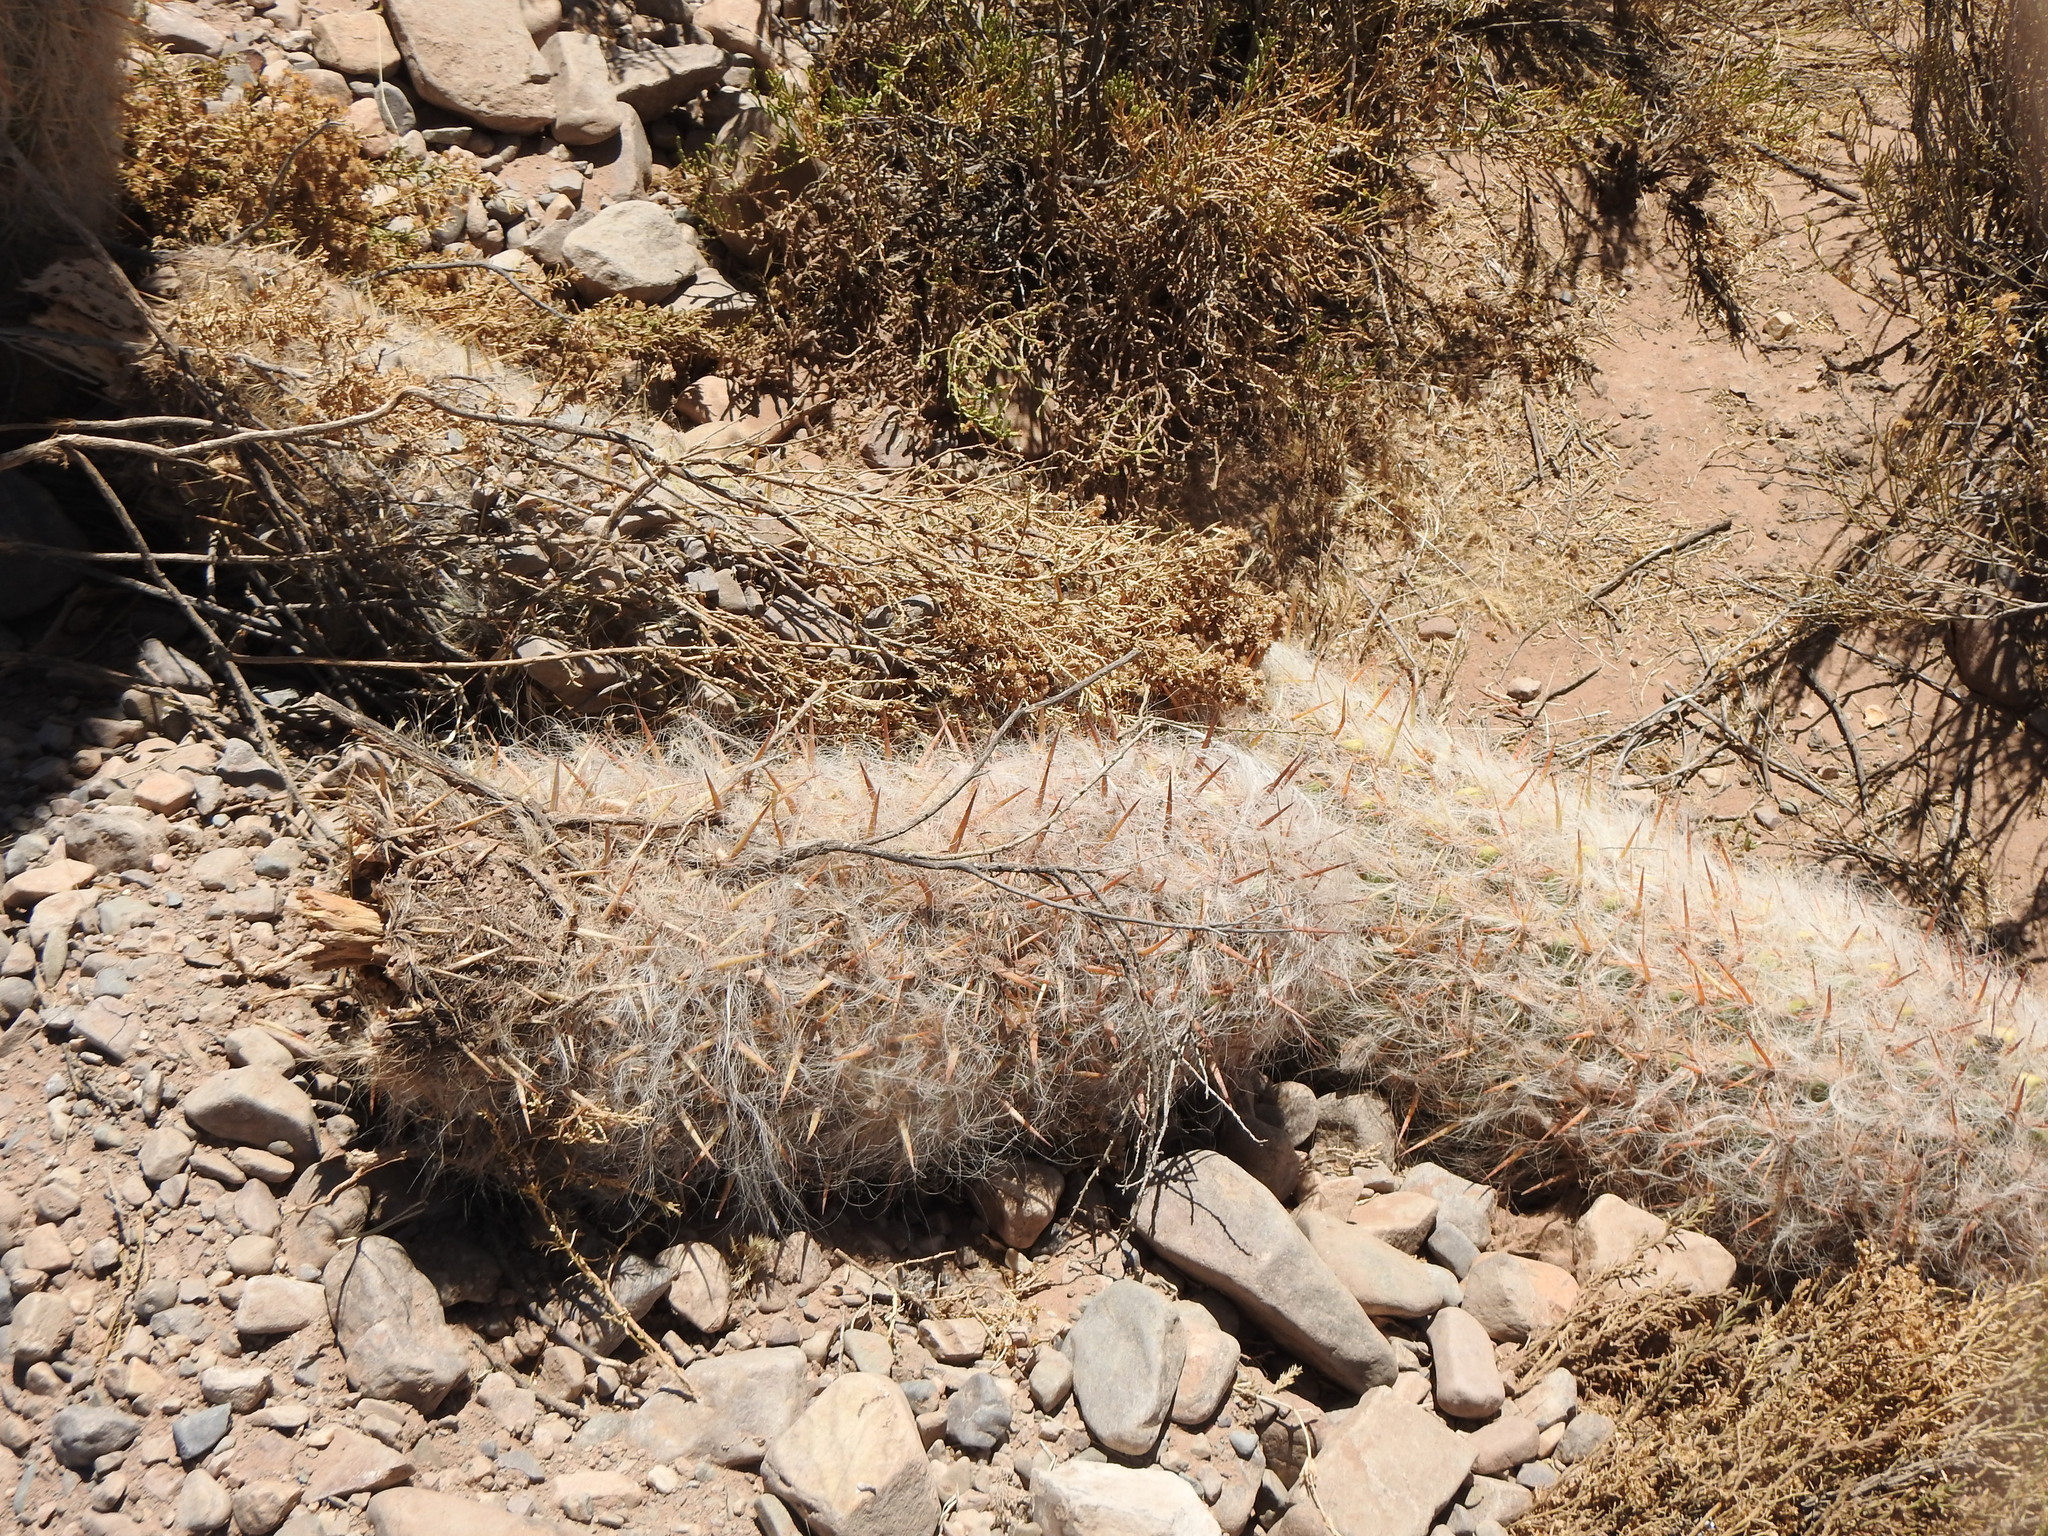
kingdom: Plantae
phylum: Tracheophyta
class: Magnoliopsida
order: Caryophyllales
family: Cactaceae
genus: Oreocereus
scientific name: Oreocereus celsianus
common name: Old-man-of-the-andes
